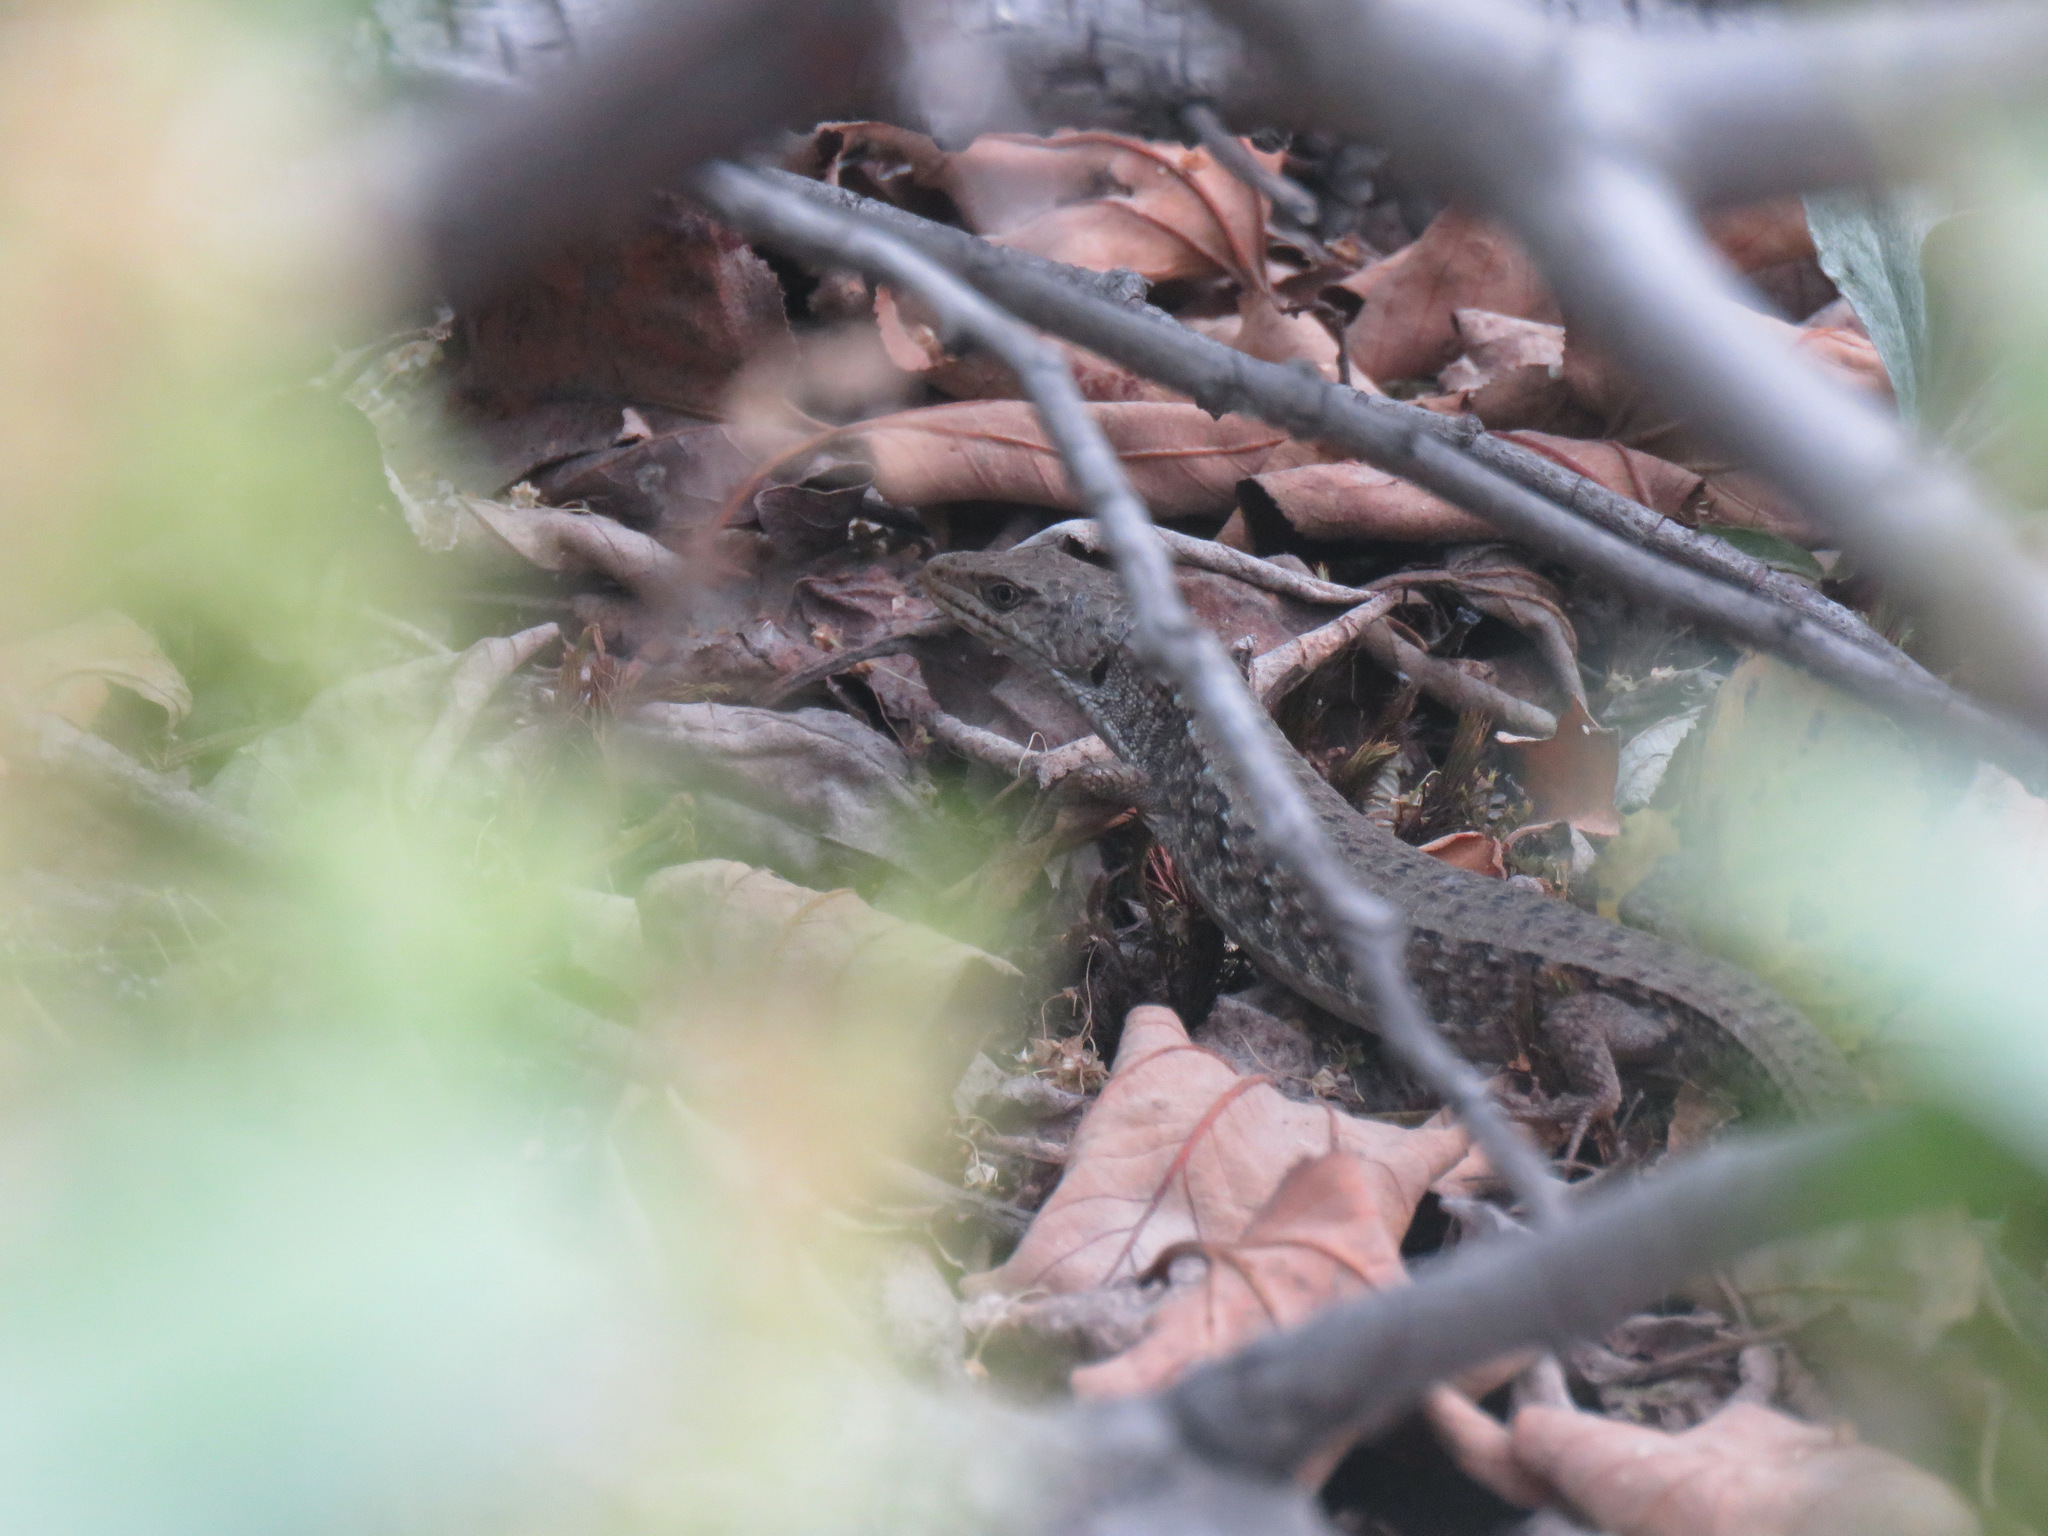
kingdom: Animalia
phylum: Chordata
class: Squamata
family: Anguidae
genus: Elgaria
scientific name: Elgaria coerulea
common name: Northern alligator lizard
